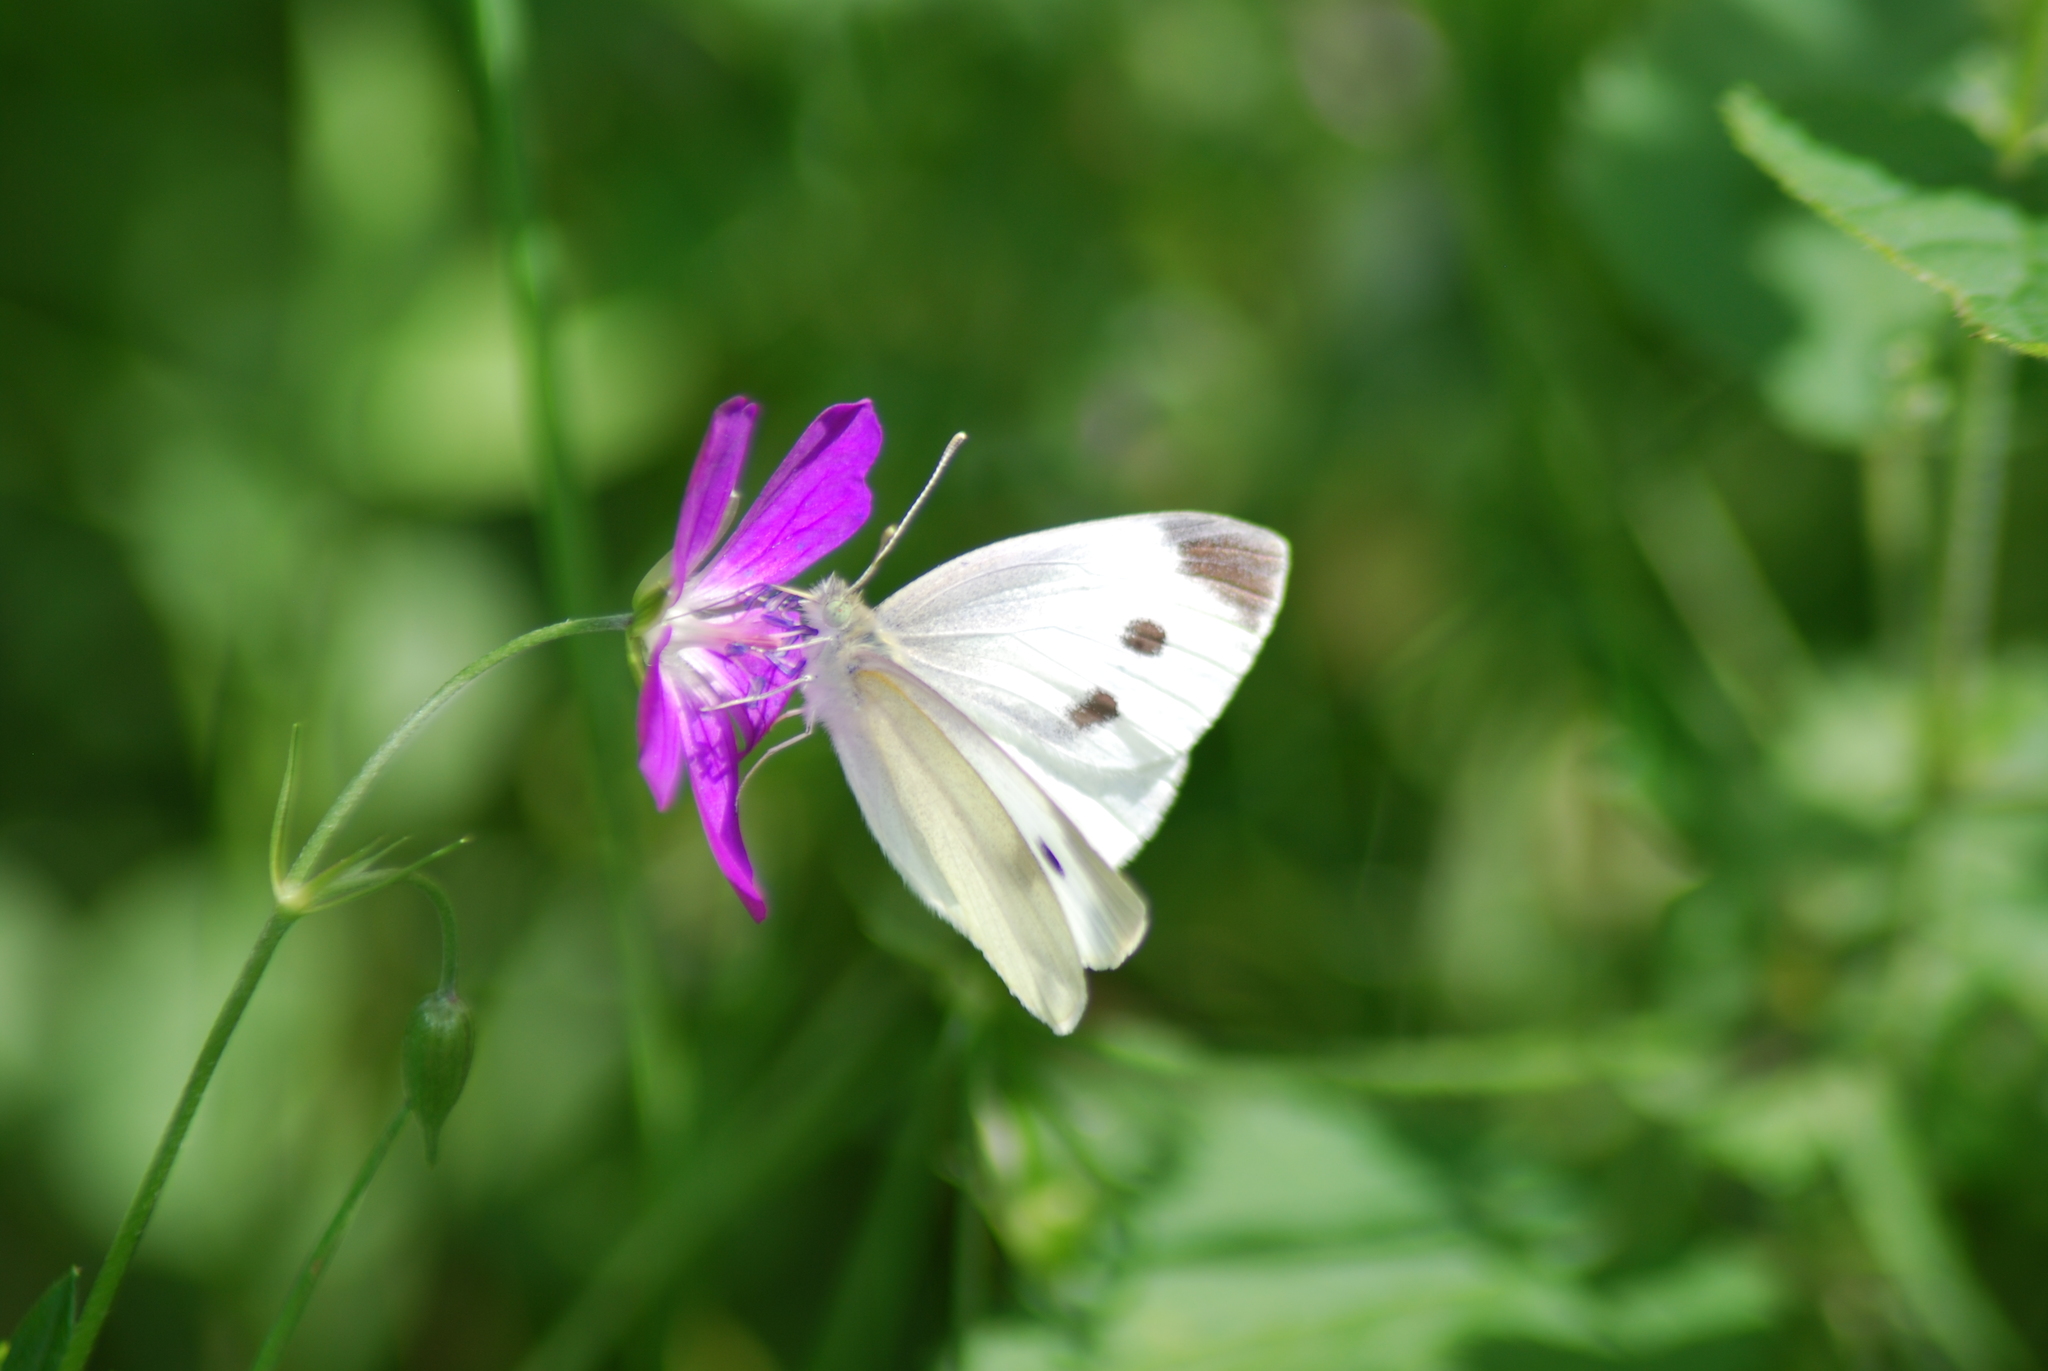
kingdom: Animalia
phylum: Arthropoda
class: Insecta
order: Lepidoptera
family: Pieridae
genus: Pieris
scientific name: Pieris rapae
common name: Small white
